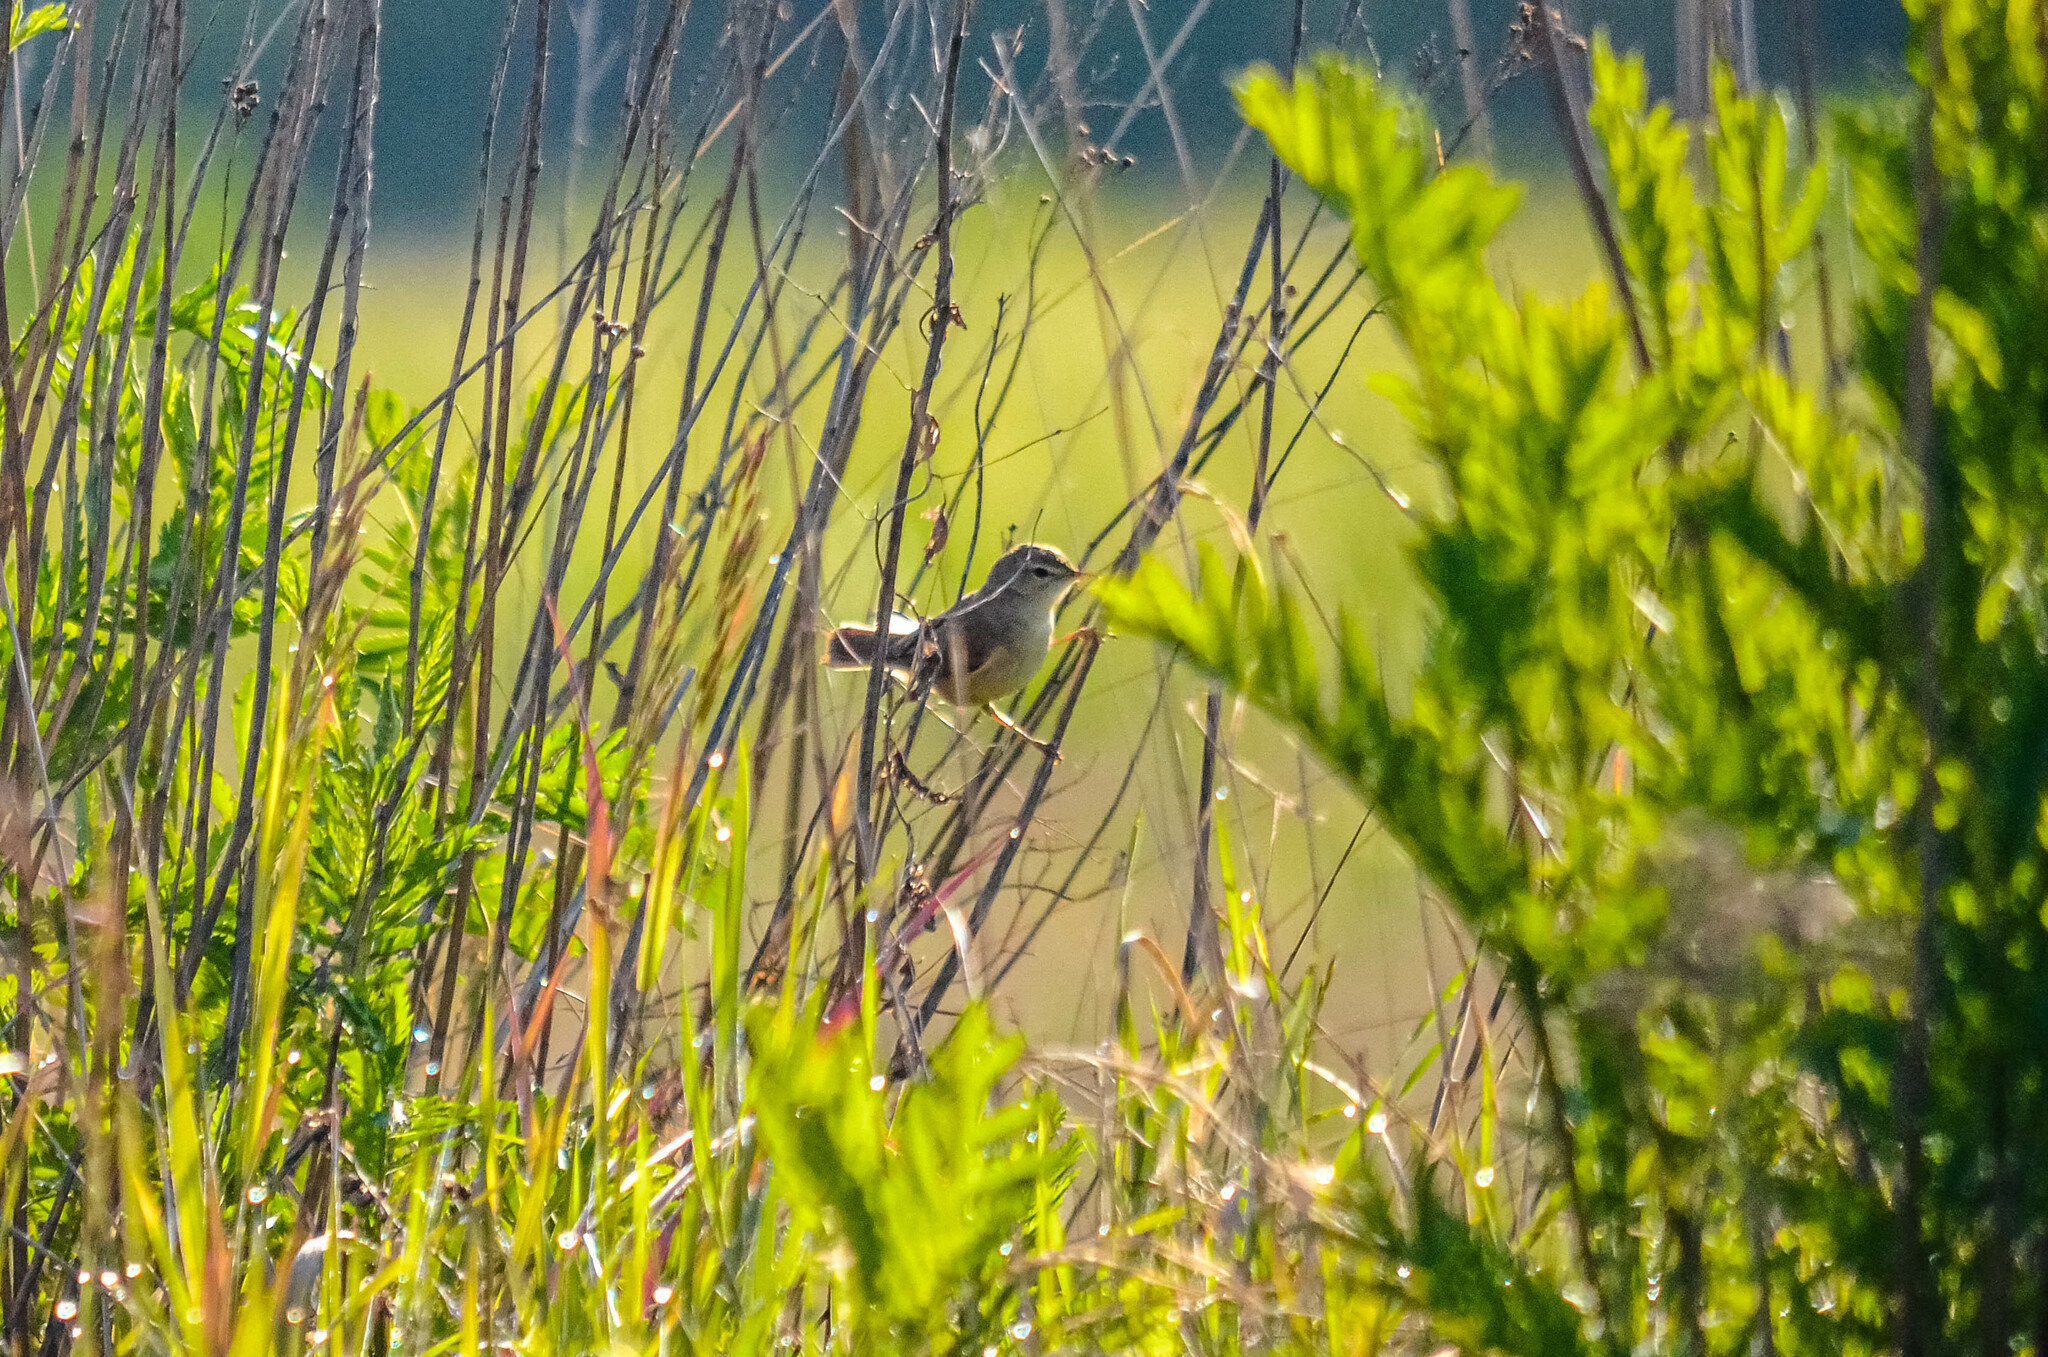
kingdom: Animalia
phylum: Chordata
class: Aves
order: Passeriformes
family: Acrocephalidae
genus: Iduna
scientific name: Iduna caligata
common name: Booted warbler
